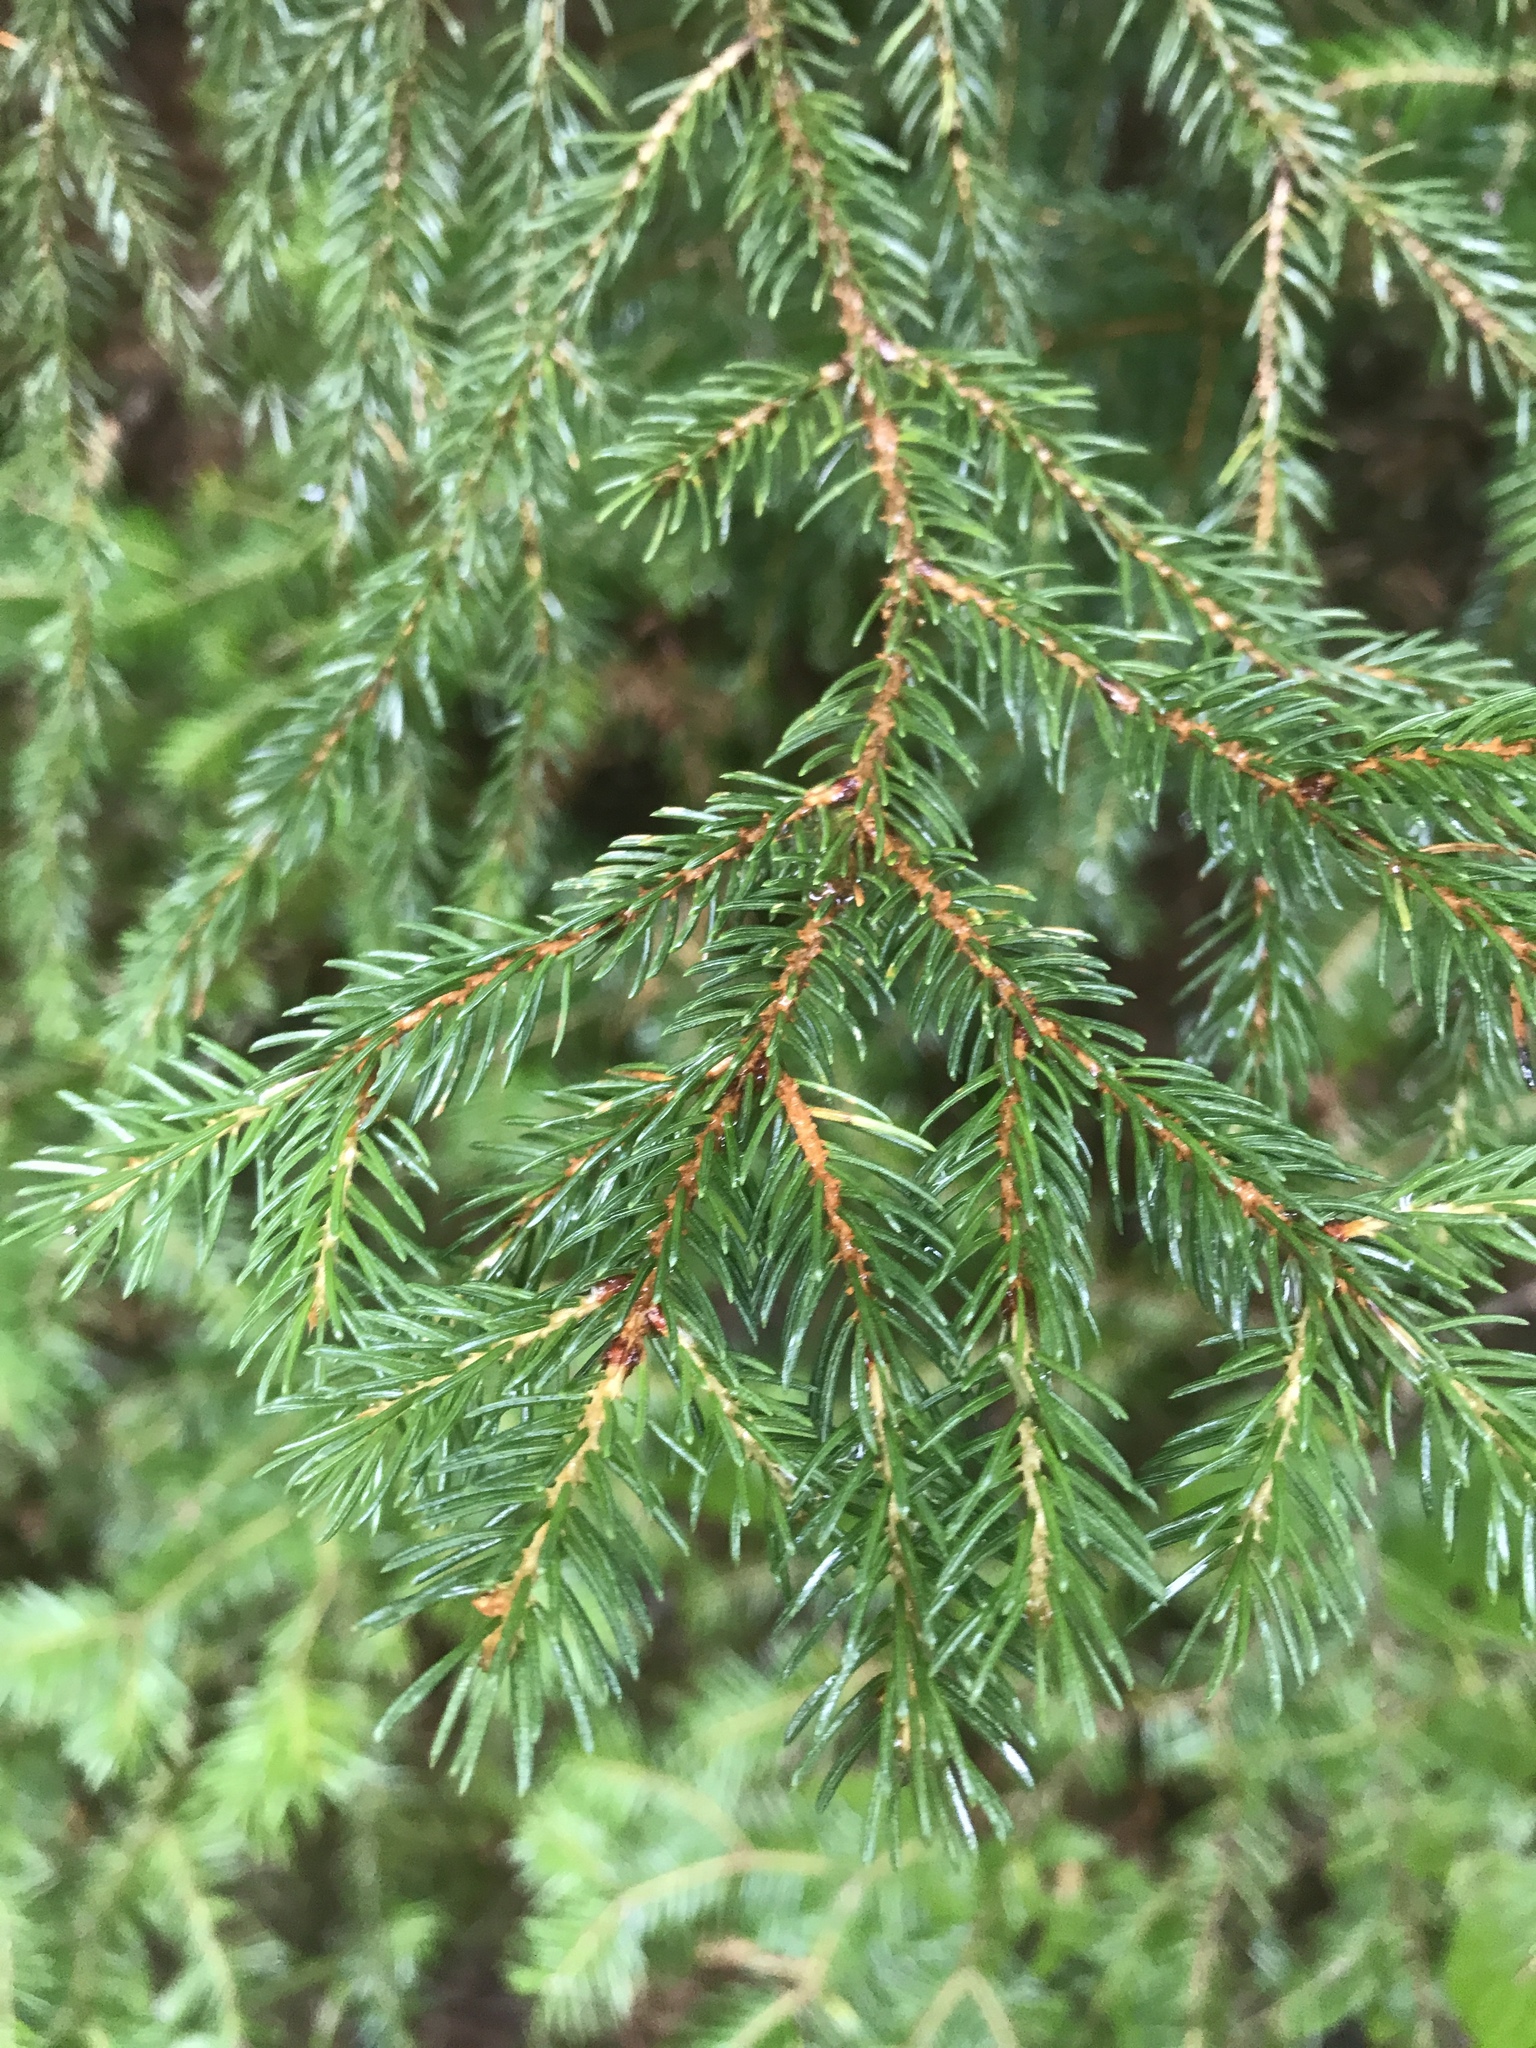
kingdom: Plantae
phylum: Tracheophyta
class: Pinopsida
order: Pinales
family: Pinaceae
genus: Picea
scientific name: Picea rubens
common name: Red spruce
